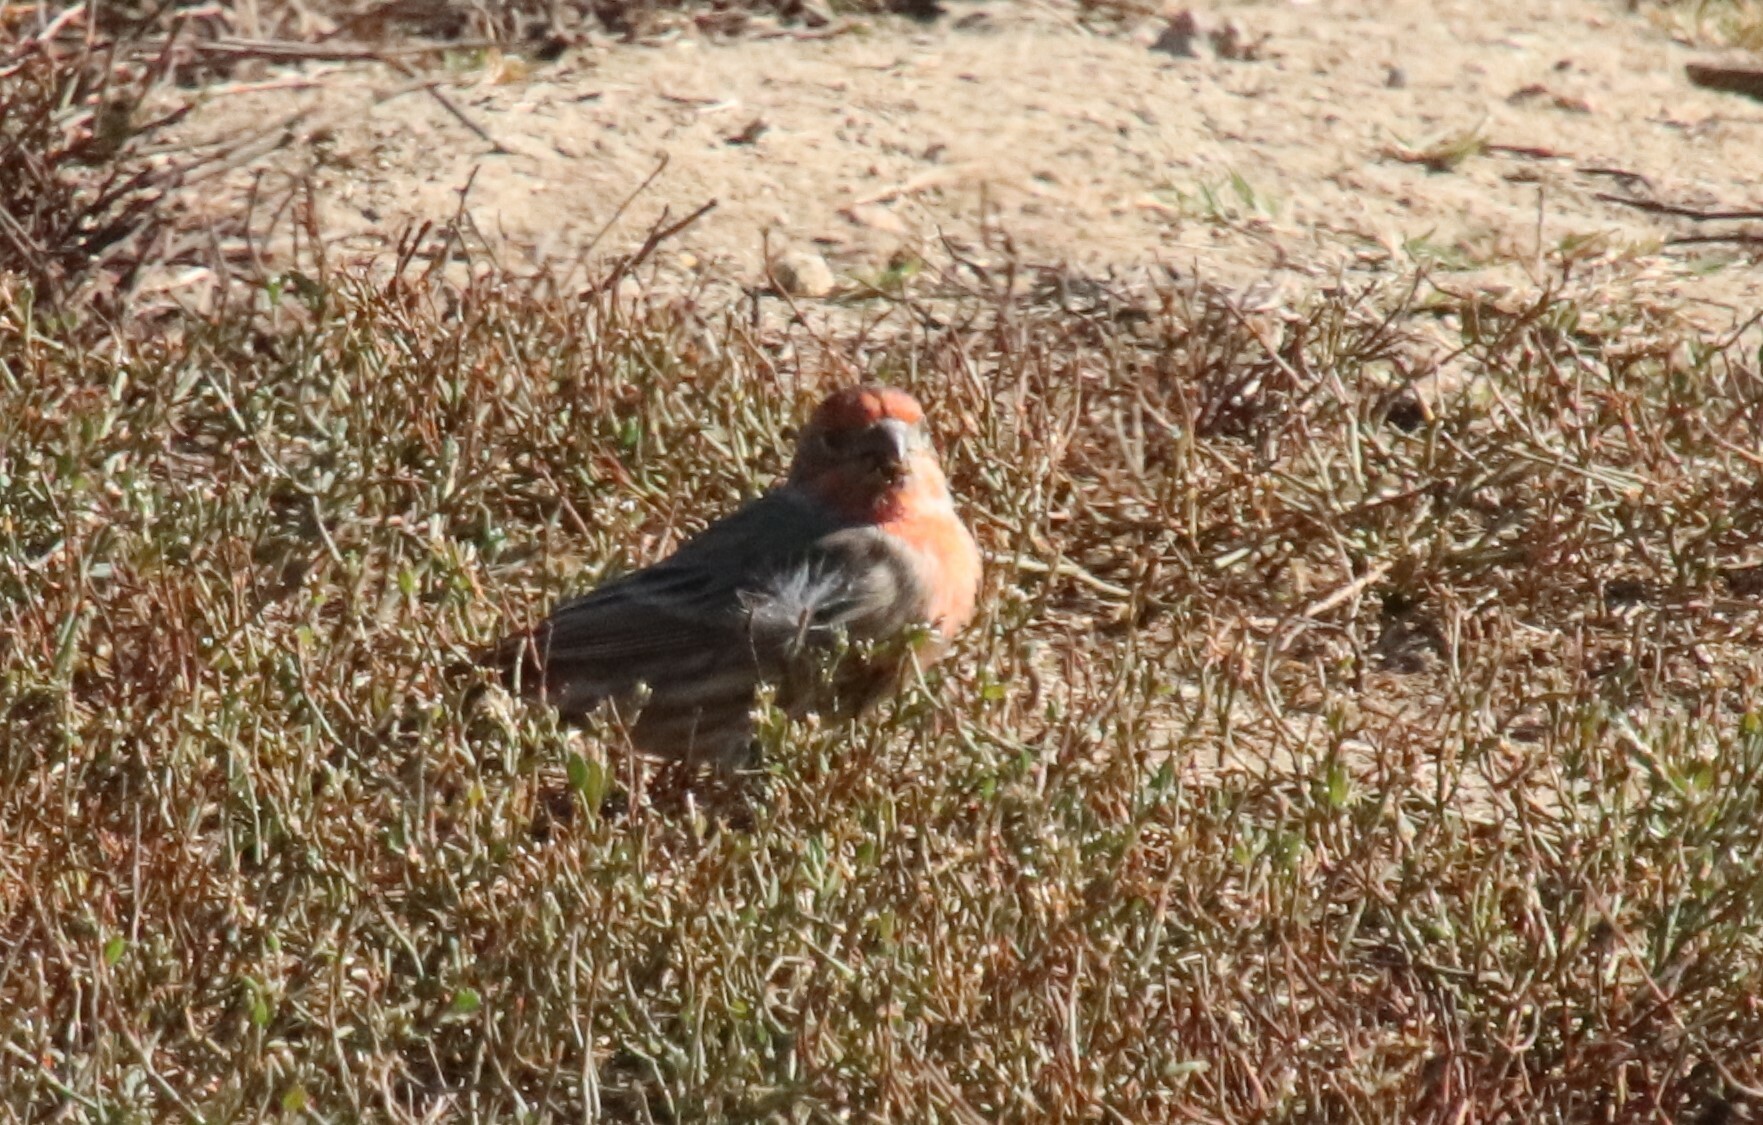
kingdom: Animalia
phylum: Chordata
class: Aves
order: Passeriformes
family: Fringillidae
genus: Haemorhous
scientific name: Haemorhous mexicanus
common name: House finch
